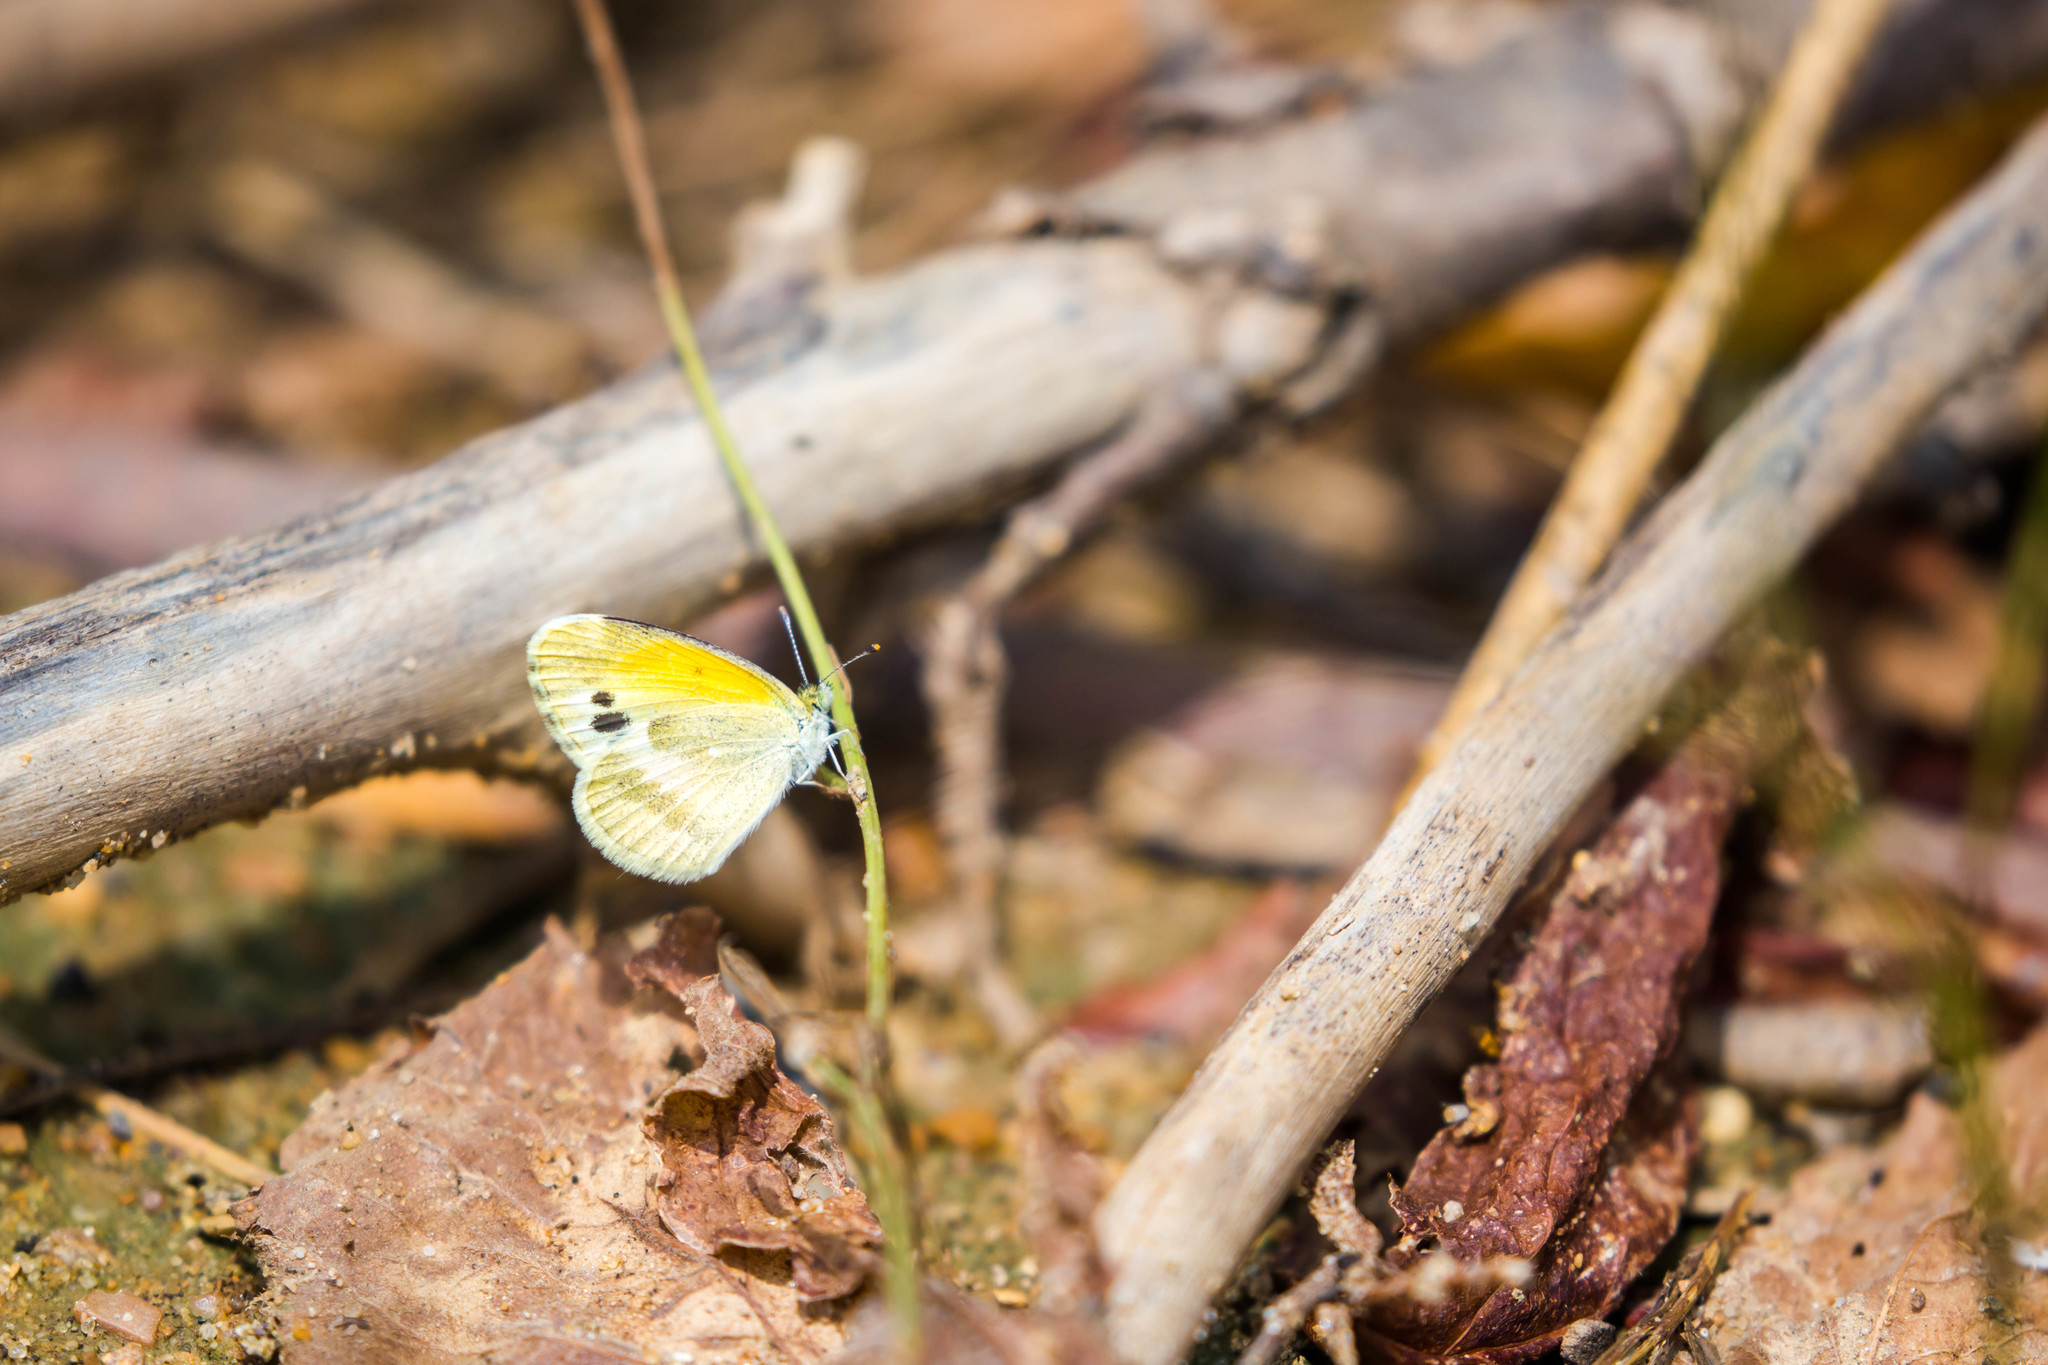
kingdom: Animalia
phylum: Arthropoda
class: Insecta
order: Lepidoptera
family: Pieridae
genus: Nathalis
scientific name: Nathalis iole
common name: Dainty sulphur
